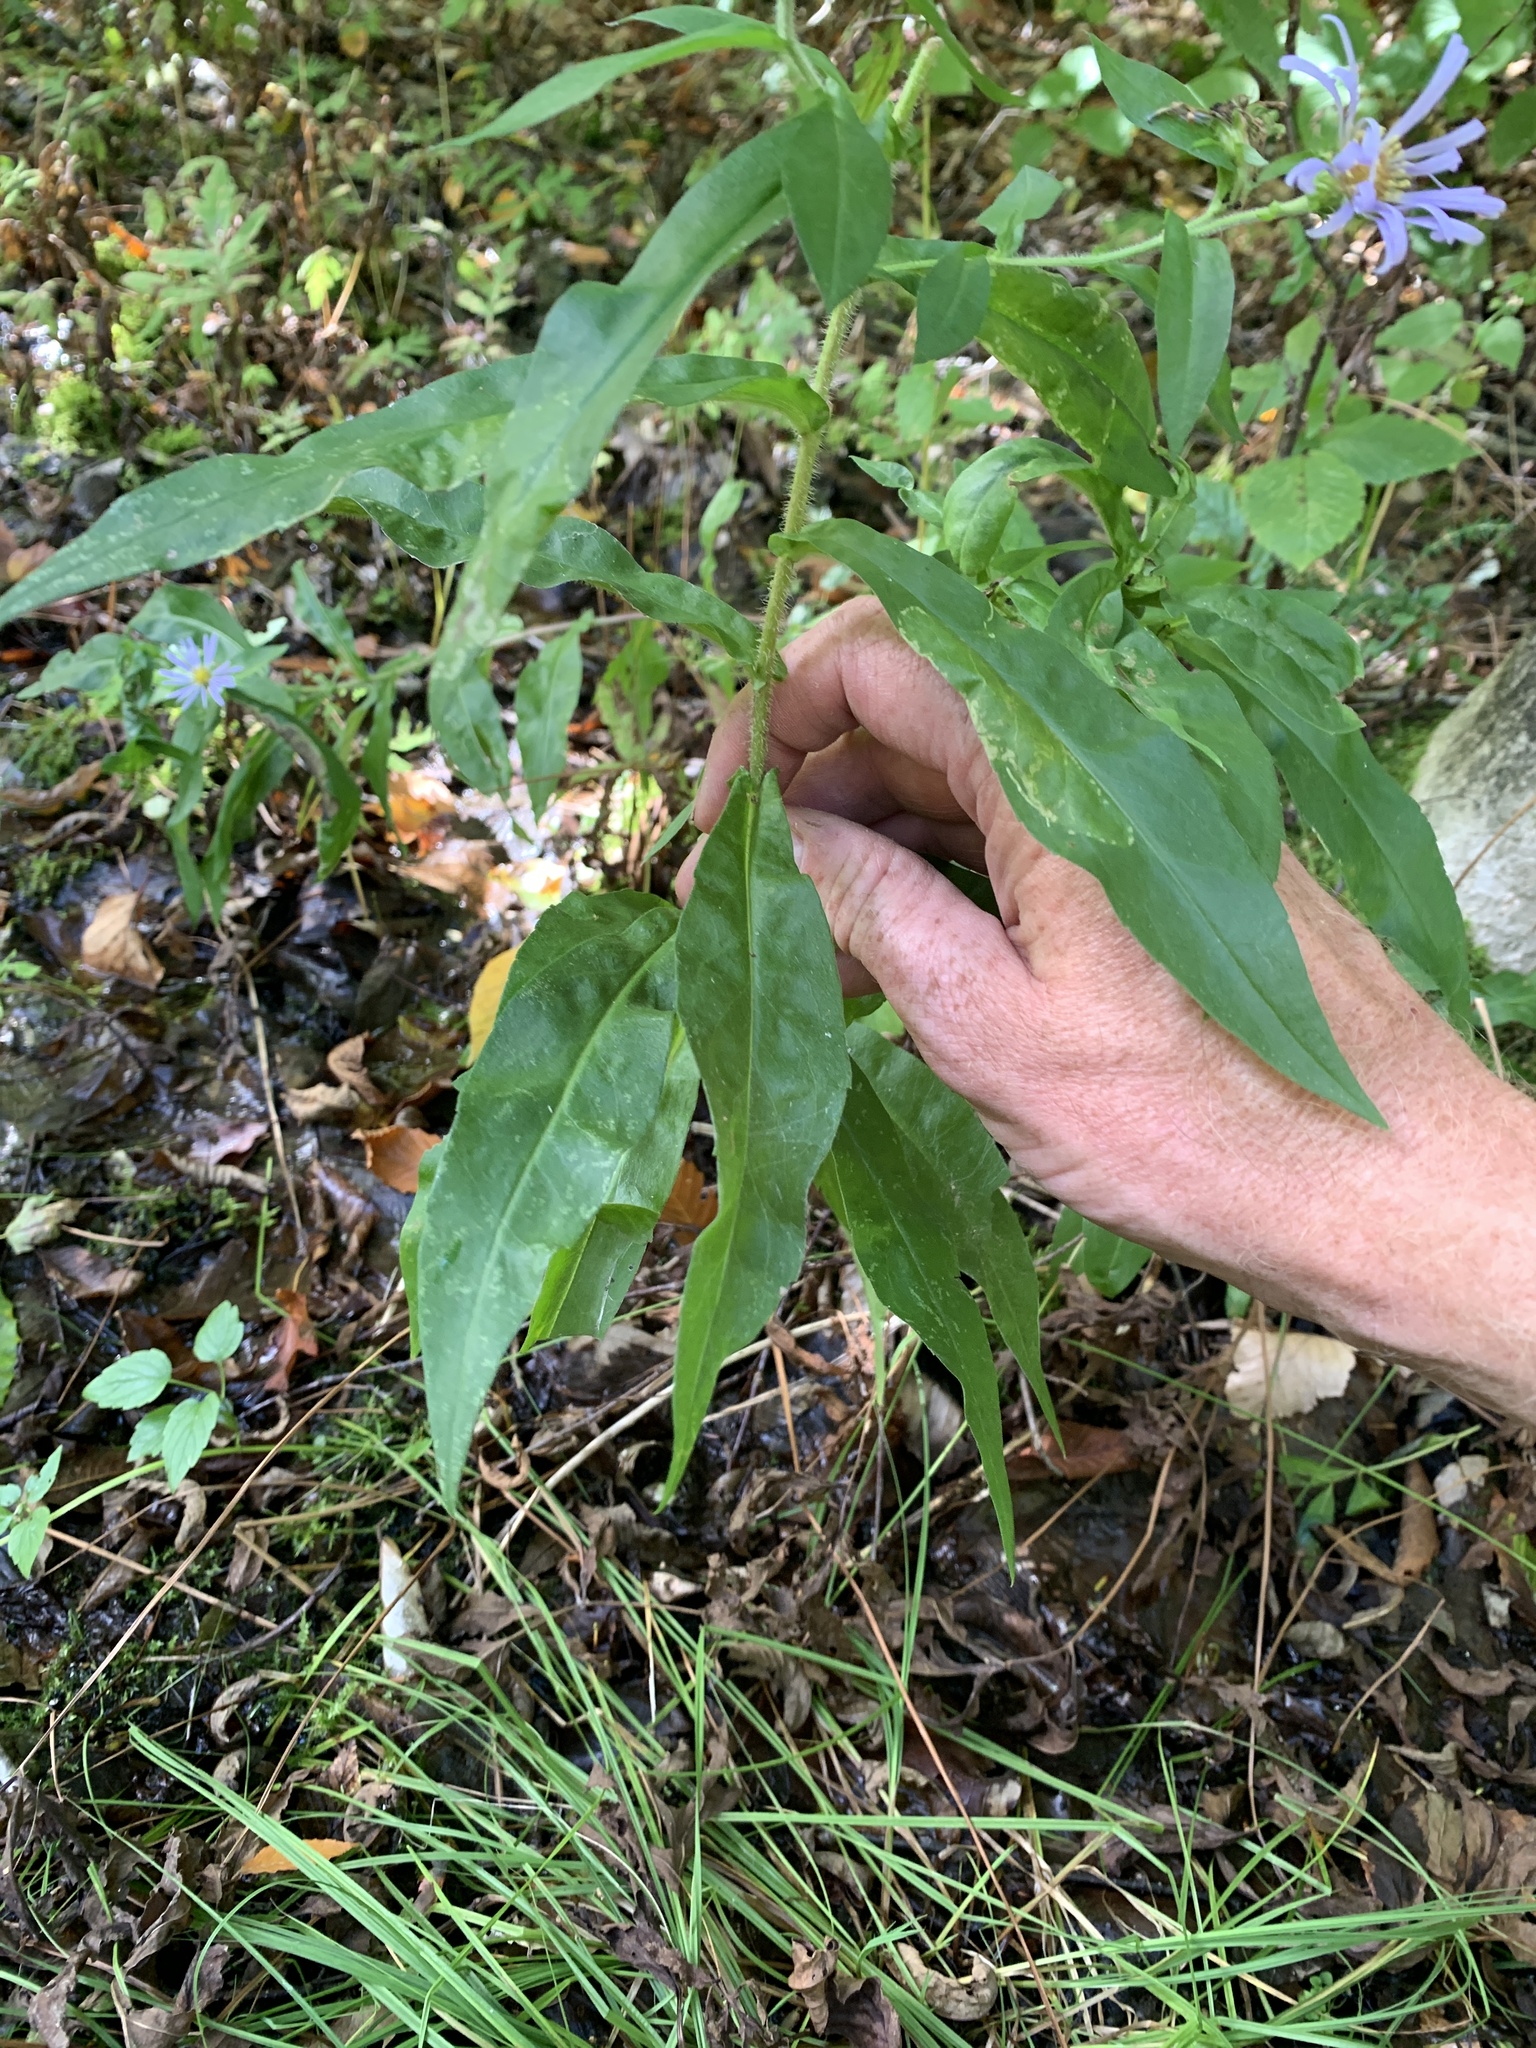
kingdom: Plantae
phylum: Tracheophyta
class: Magnoliopsida
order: Asterales
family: Asteraceae
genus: Symphyotrichum
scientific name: Symphyotrichum puniceum
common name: Bog aster
